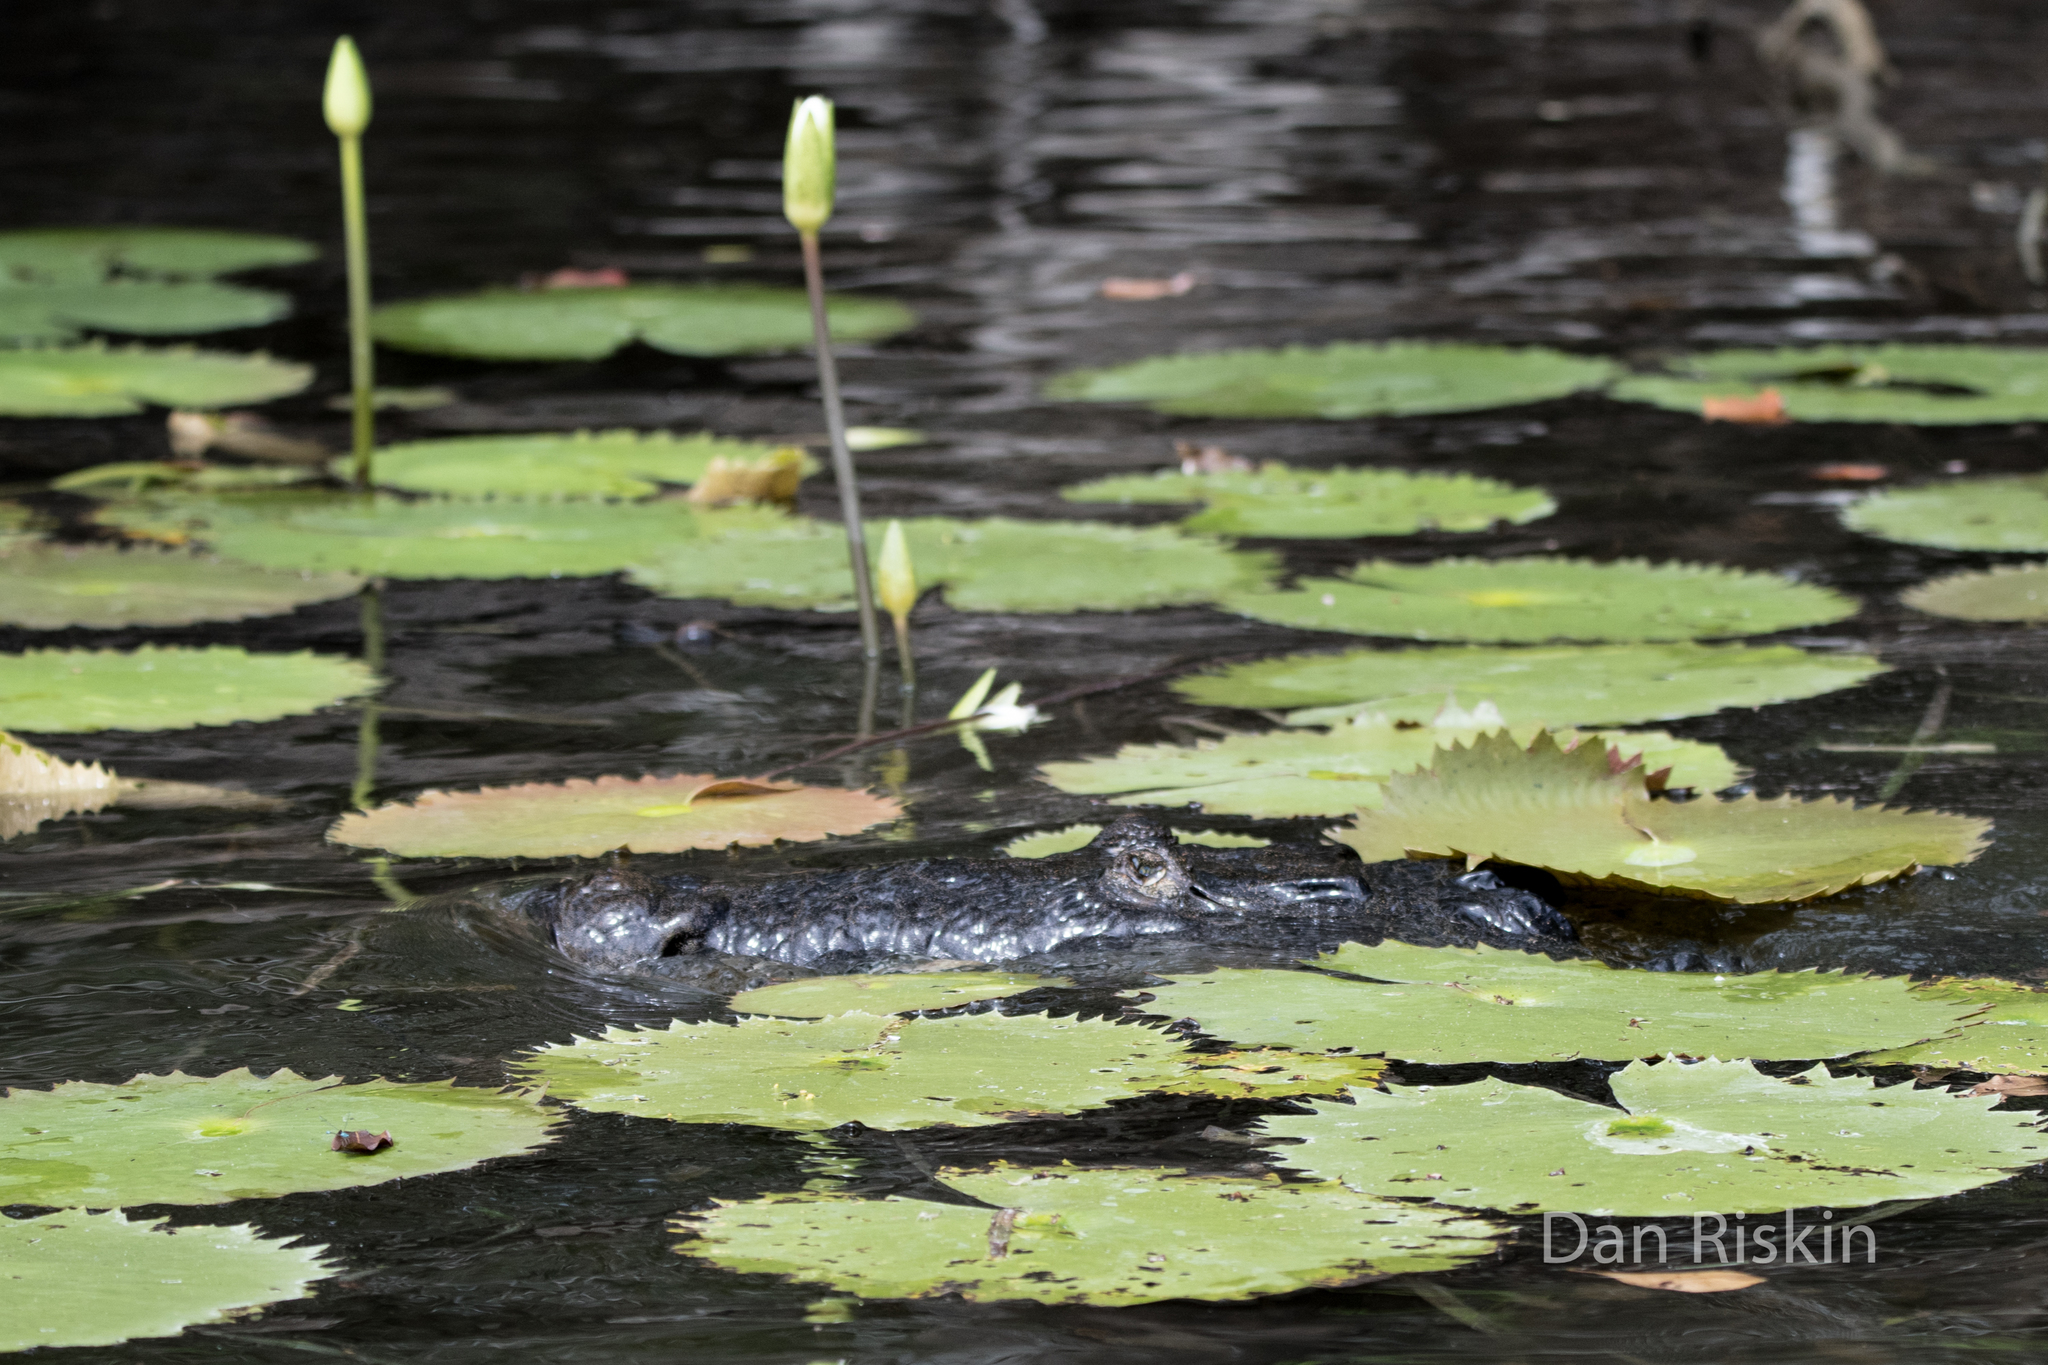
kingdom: Animalia
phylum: Chordata
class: Crocodylia
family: Crocodylidae
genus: Crocodylus
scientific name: Crocodylus moreletii
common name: Morelet's crocodile
